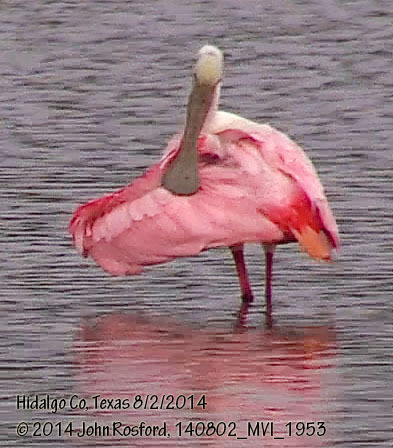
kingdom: Animalia
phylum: Chordata
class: Aves
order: Pelecaniformes
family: Threskiornithidae
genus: Platalea
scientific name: Platalea ajaja
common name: Roseate spoonbill
